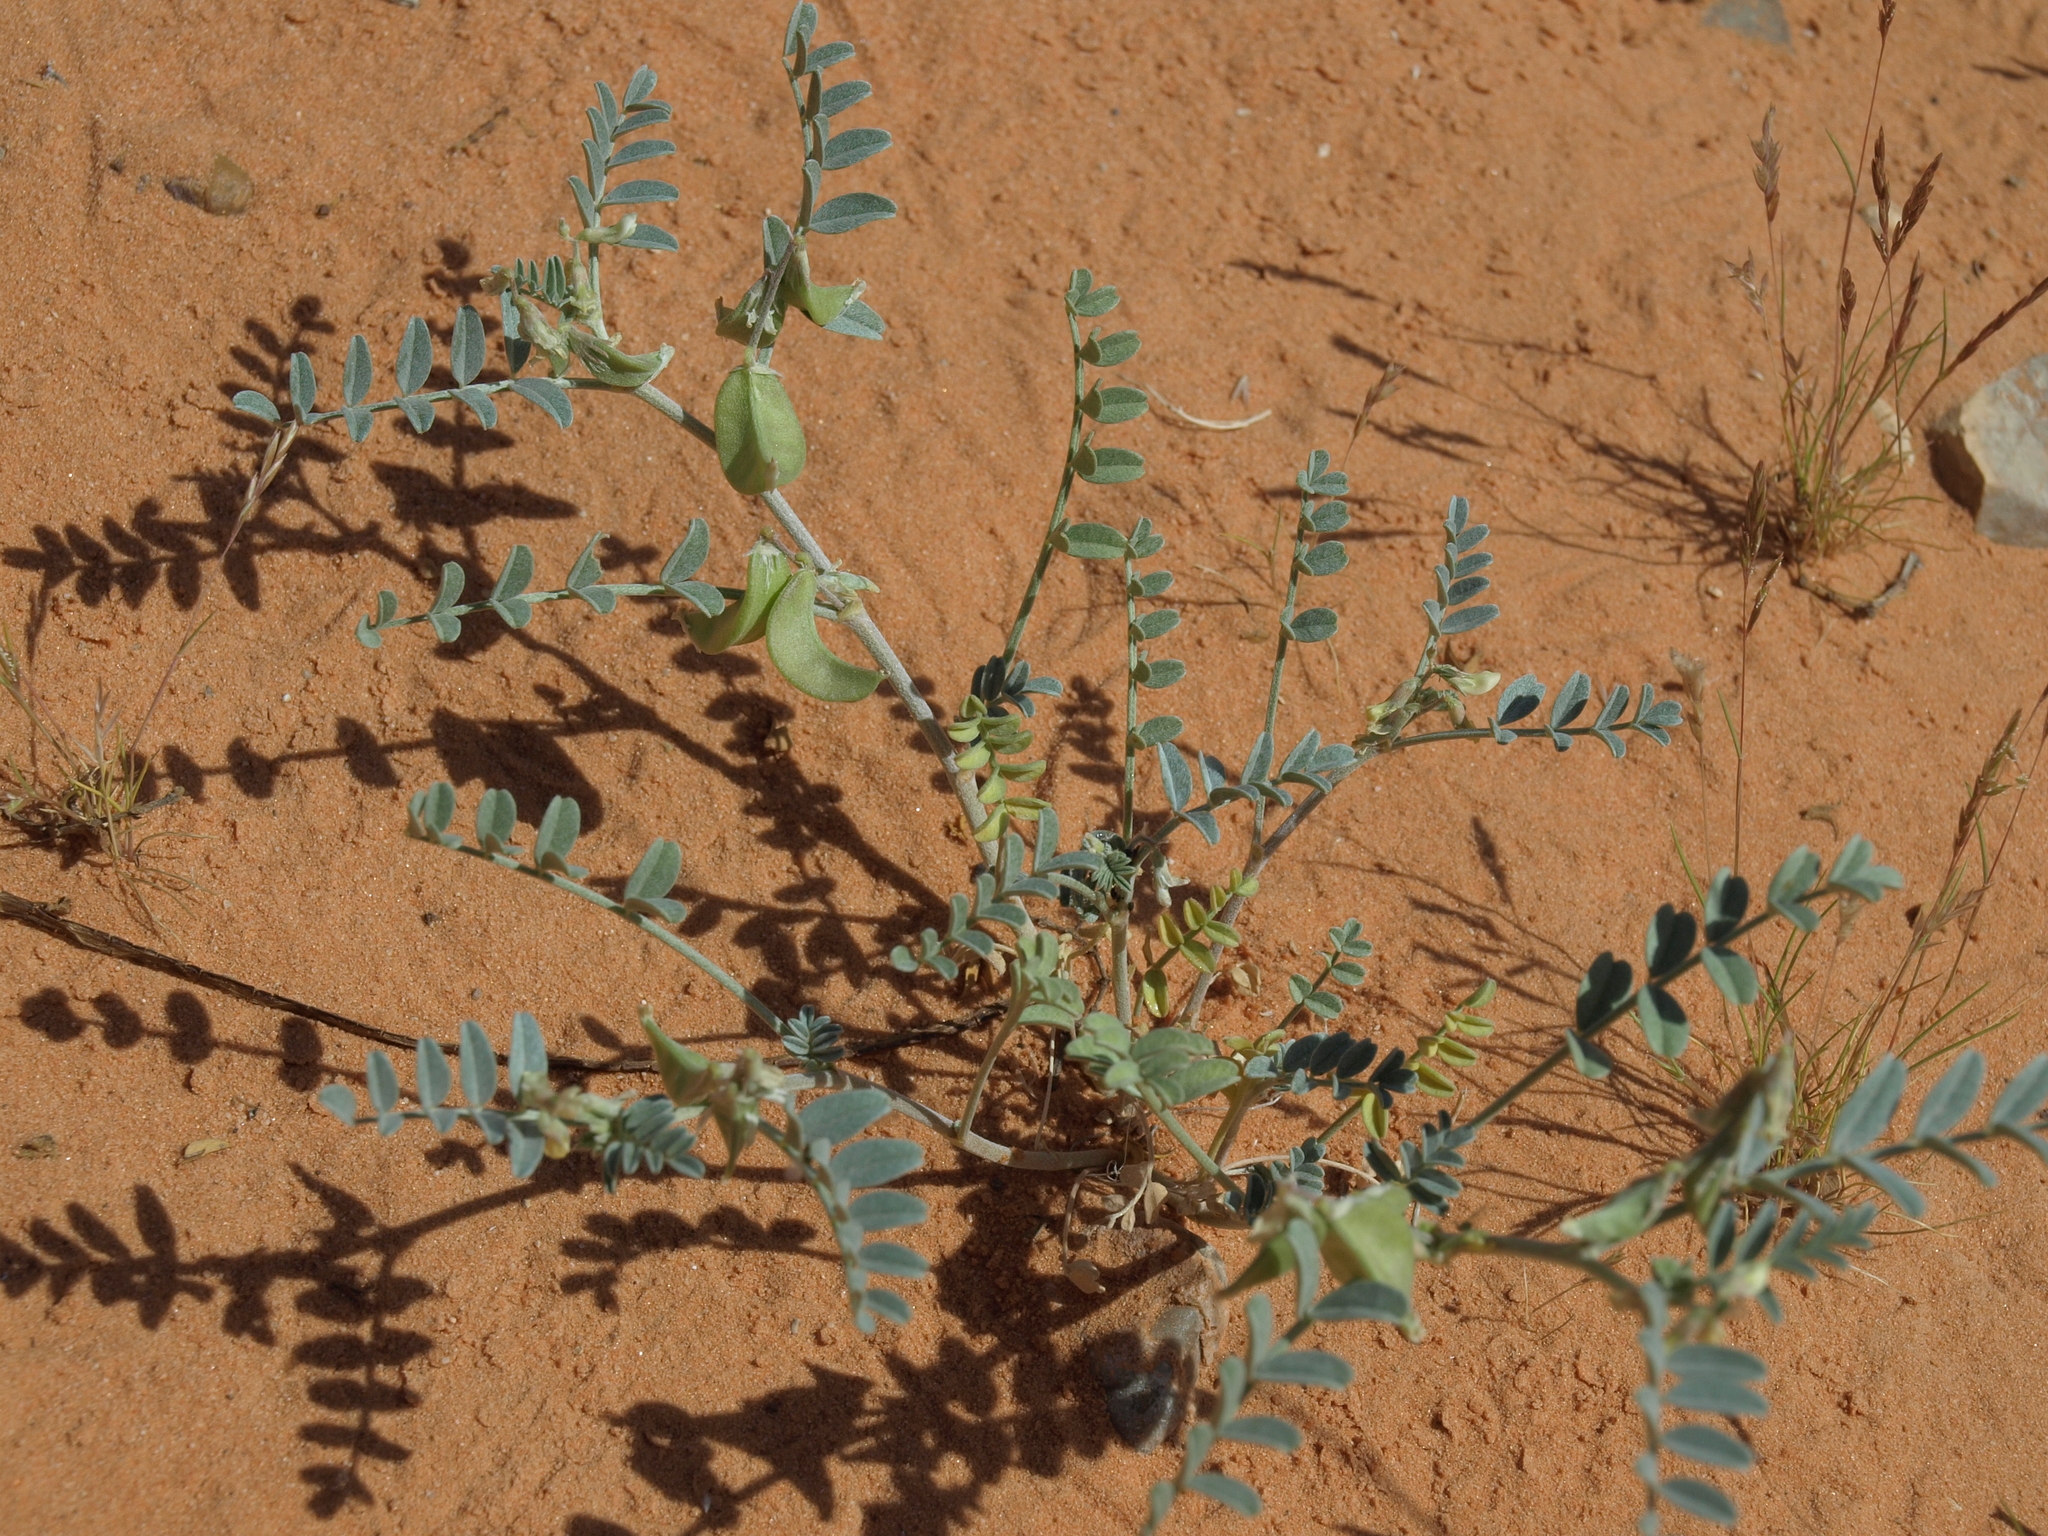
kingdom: Plantae
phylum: Tracheophyta
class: Magnoliopsida
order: Fabales
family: Fabaceae
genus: Astragalus
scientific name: Astragalus geyeri
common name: Geyer's milkvetch
